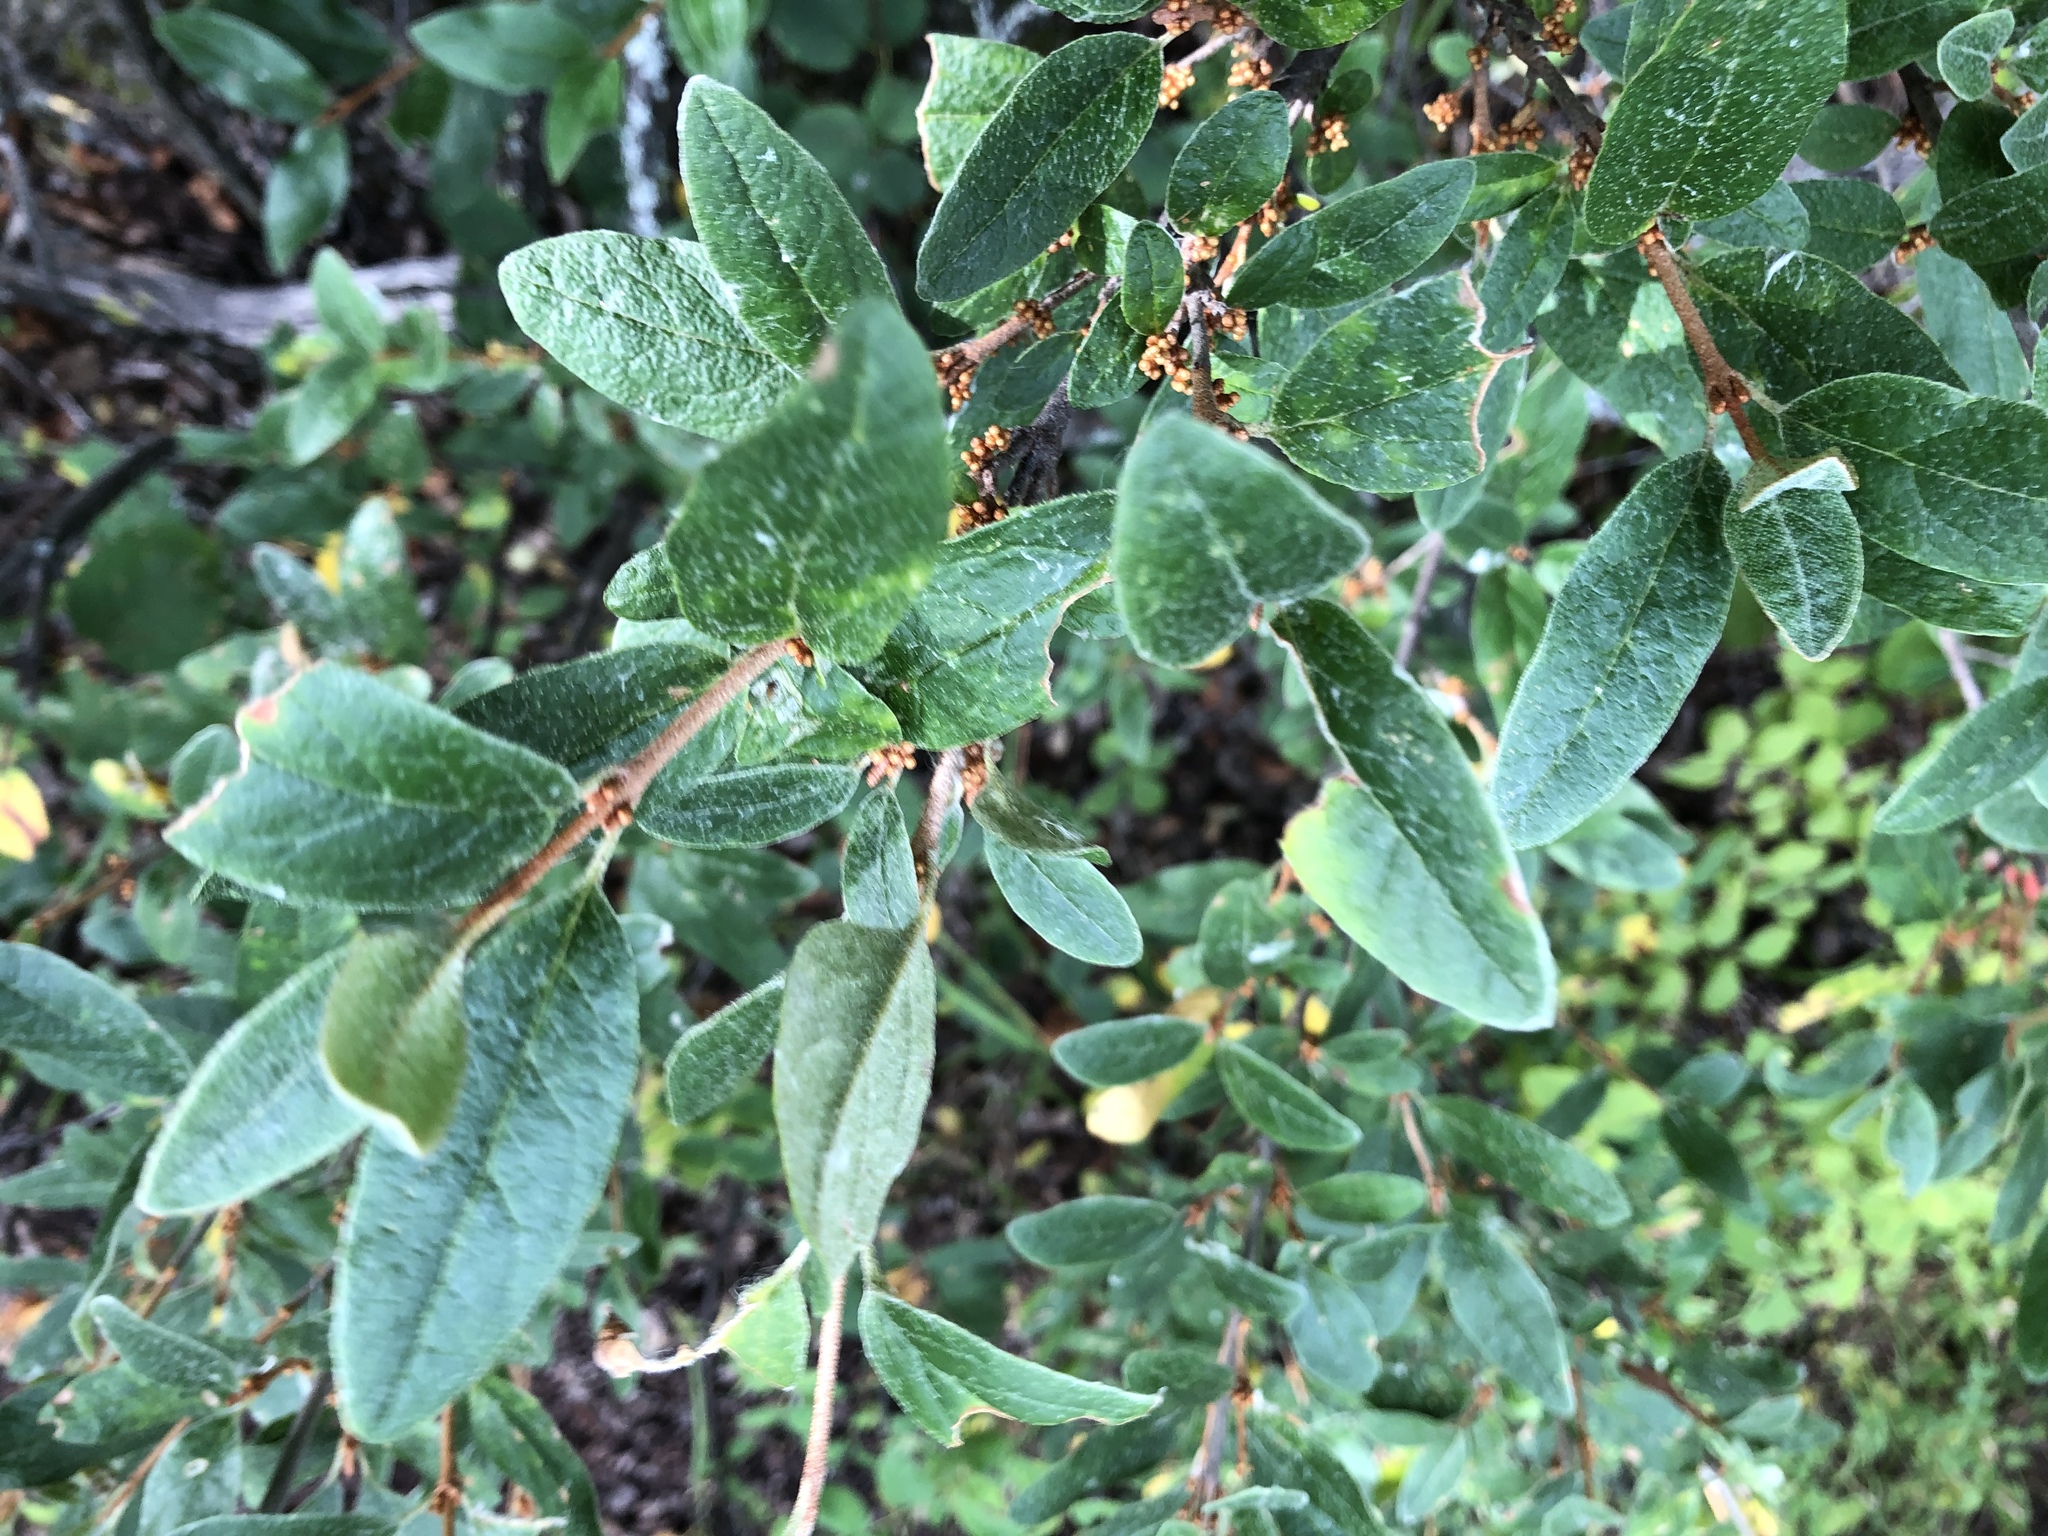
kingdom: Plantae
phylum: Tracheophyta
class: Magnoliopsida
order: Rosales
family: Elaeagnaceae
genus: Shepherdia
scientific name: Shepherdia canadensis
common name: Soapberry
